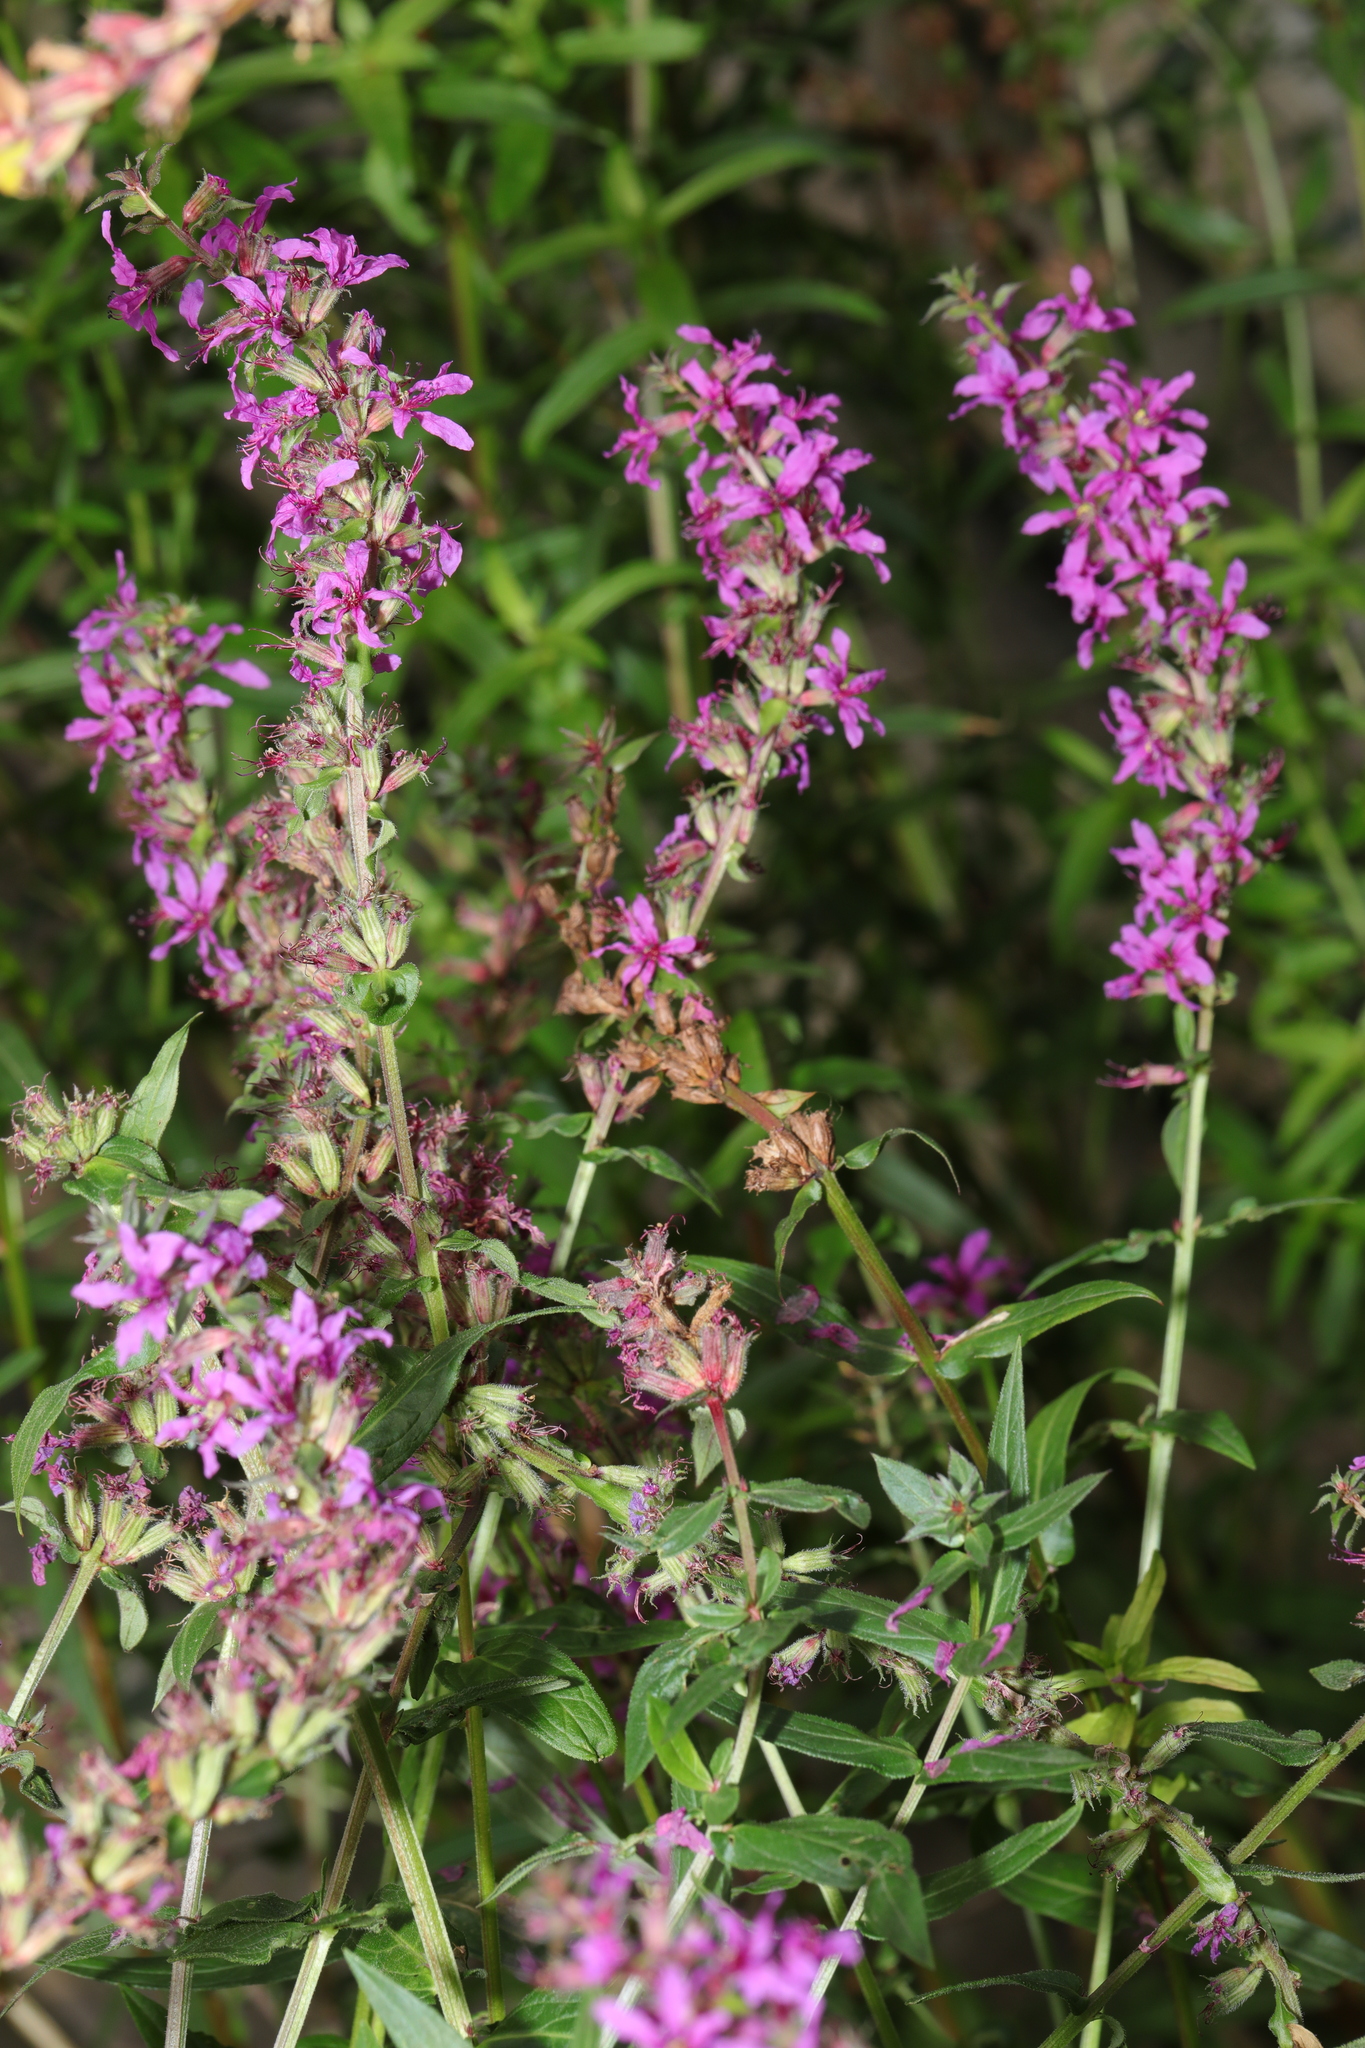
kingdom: Plantae
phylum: Tracheophyta
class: Magnoliopsida
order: Myrtales
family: Lythraceae
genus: Lythrum
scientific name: Lythrum salicaria
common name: Purple loosestrife
